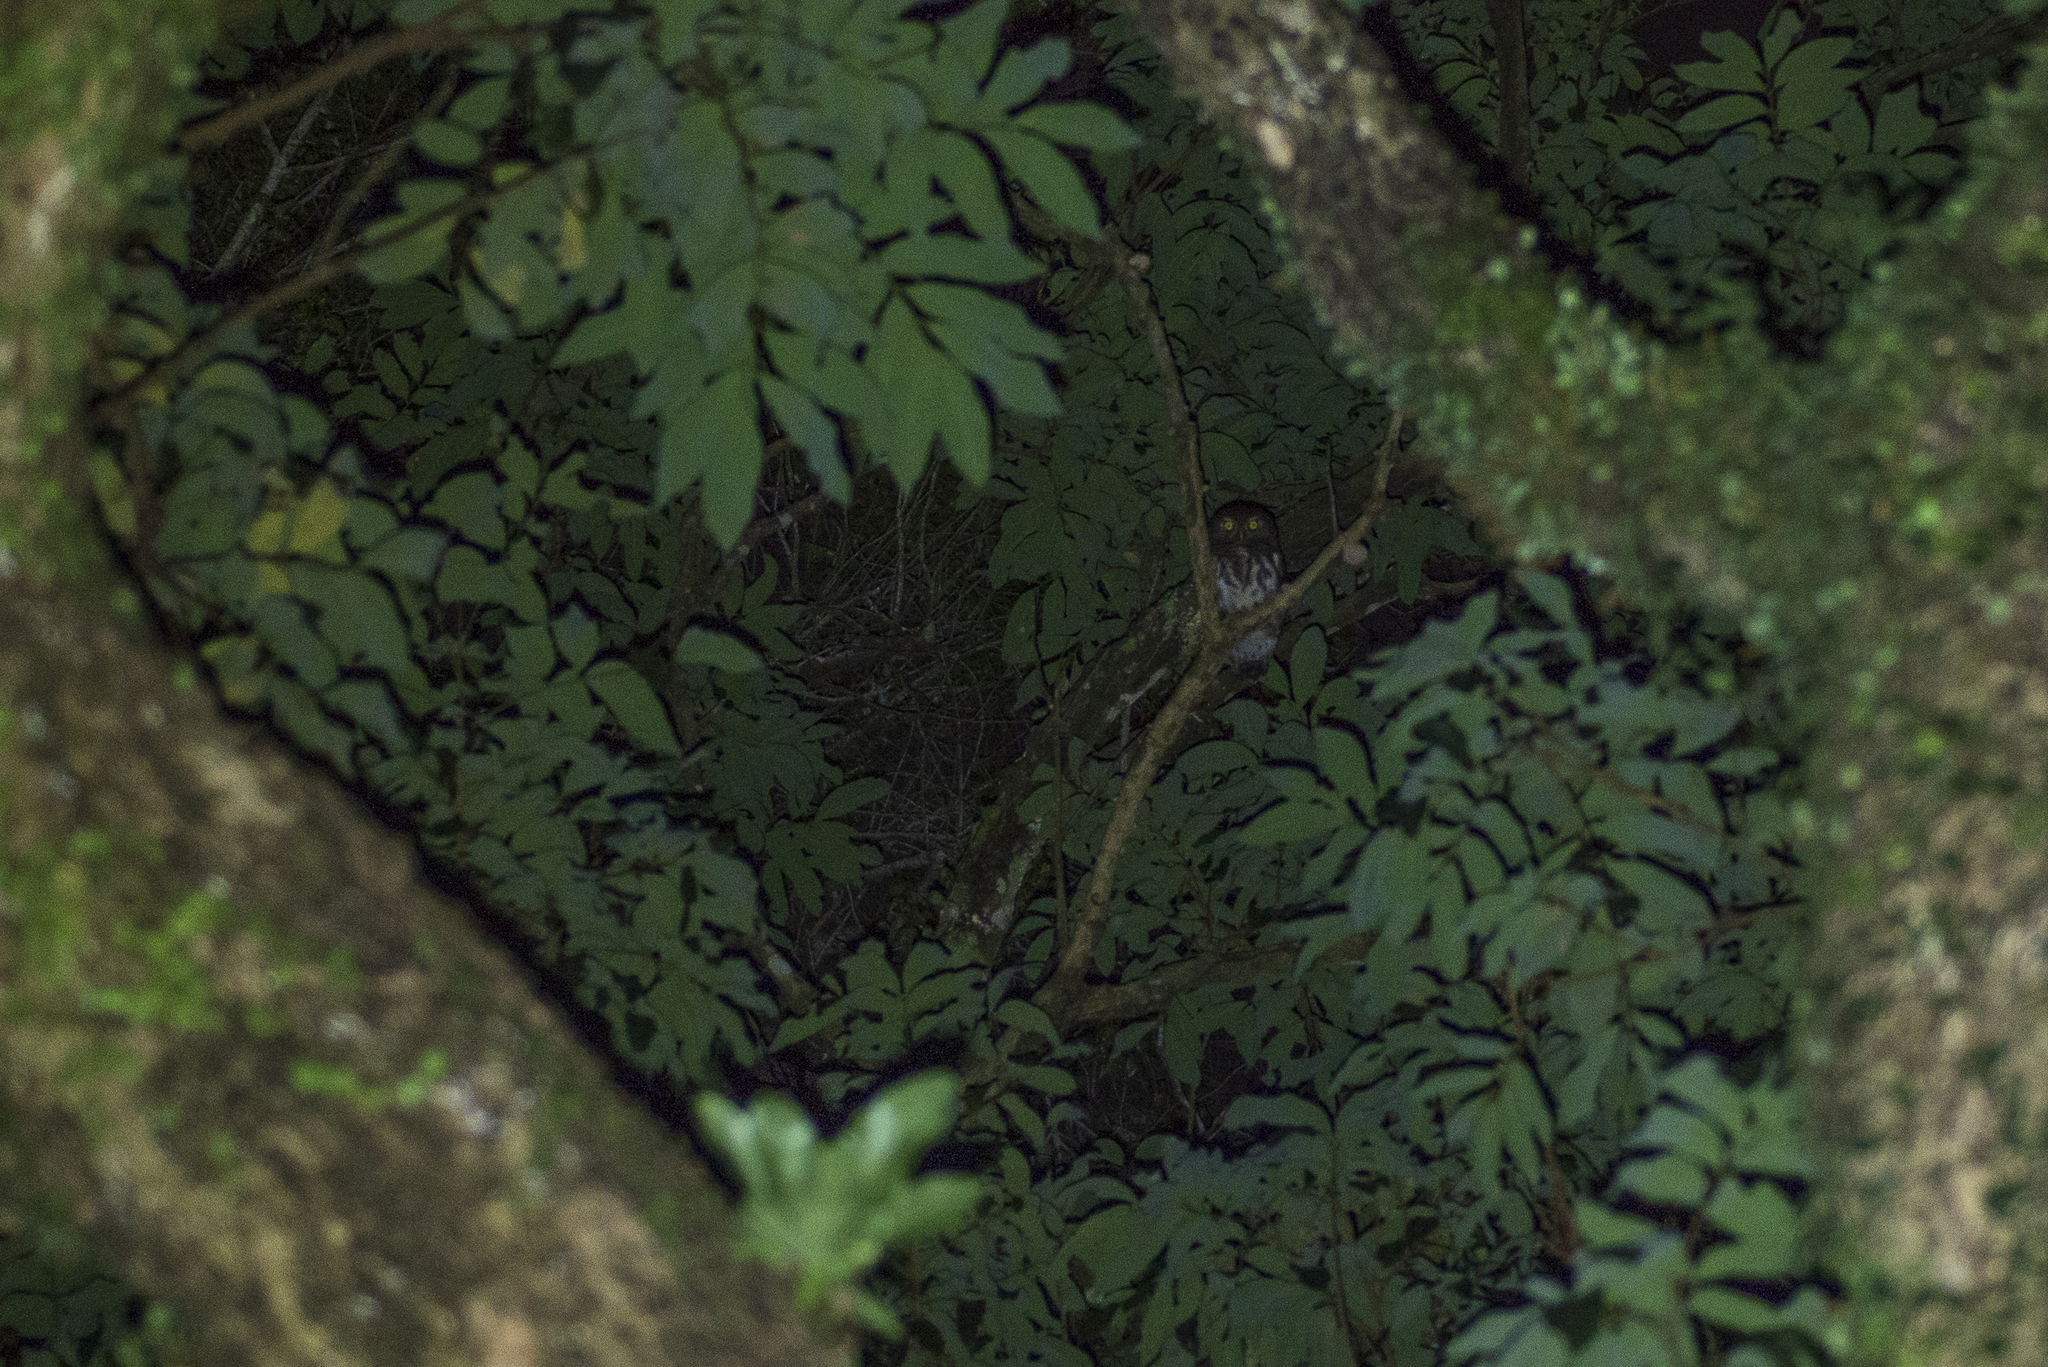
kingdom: Animalia
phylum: Chordata
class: Aves
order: Strigiformes
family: Strigidae
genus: Glaucidium
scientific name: Glaucidium cuculoides
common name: Asian barred owlet
